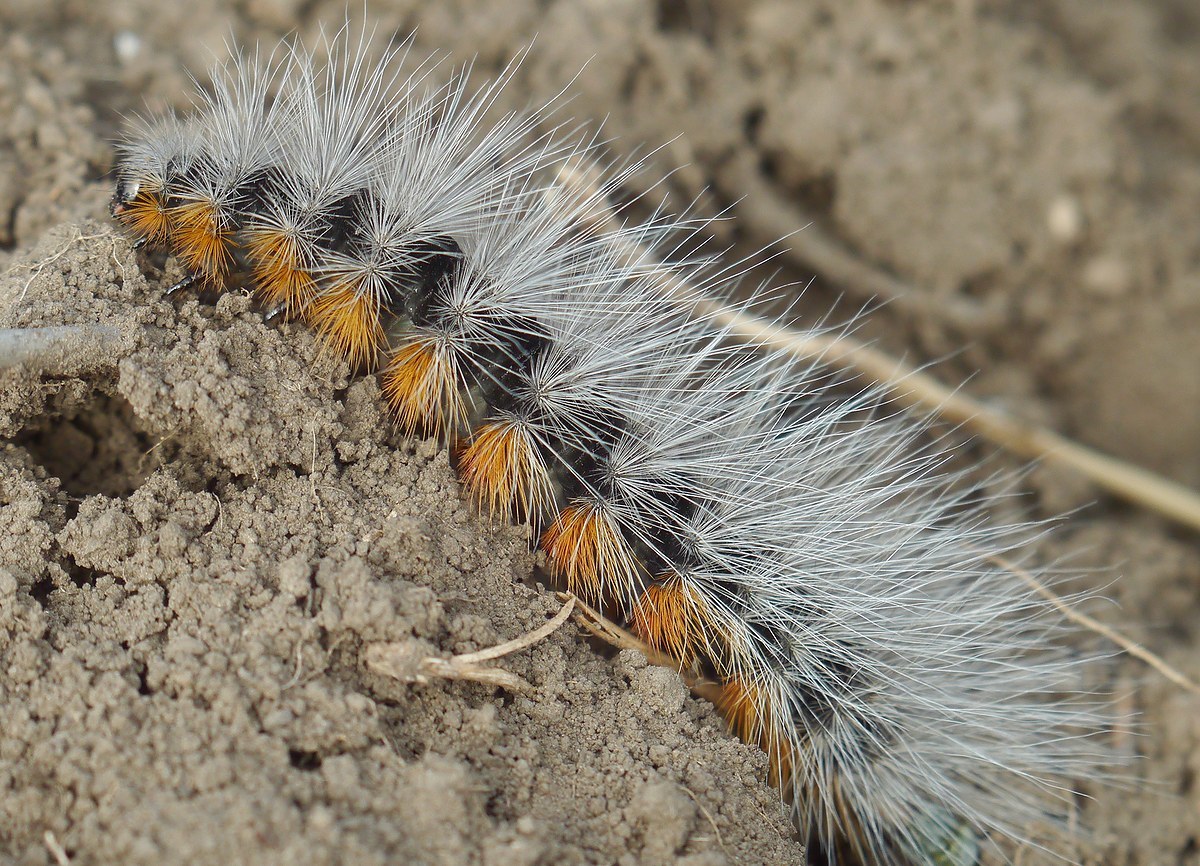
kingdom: Animalia
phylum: Arthropoda
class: Insecta
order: Lepidoptera
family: Erebidae
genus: Eucharia
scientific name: Eucharia festiva
